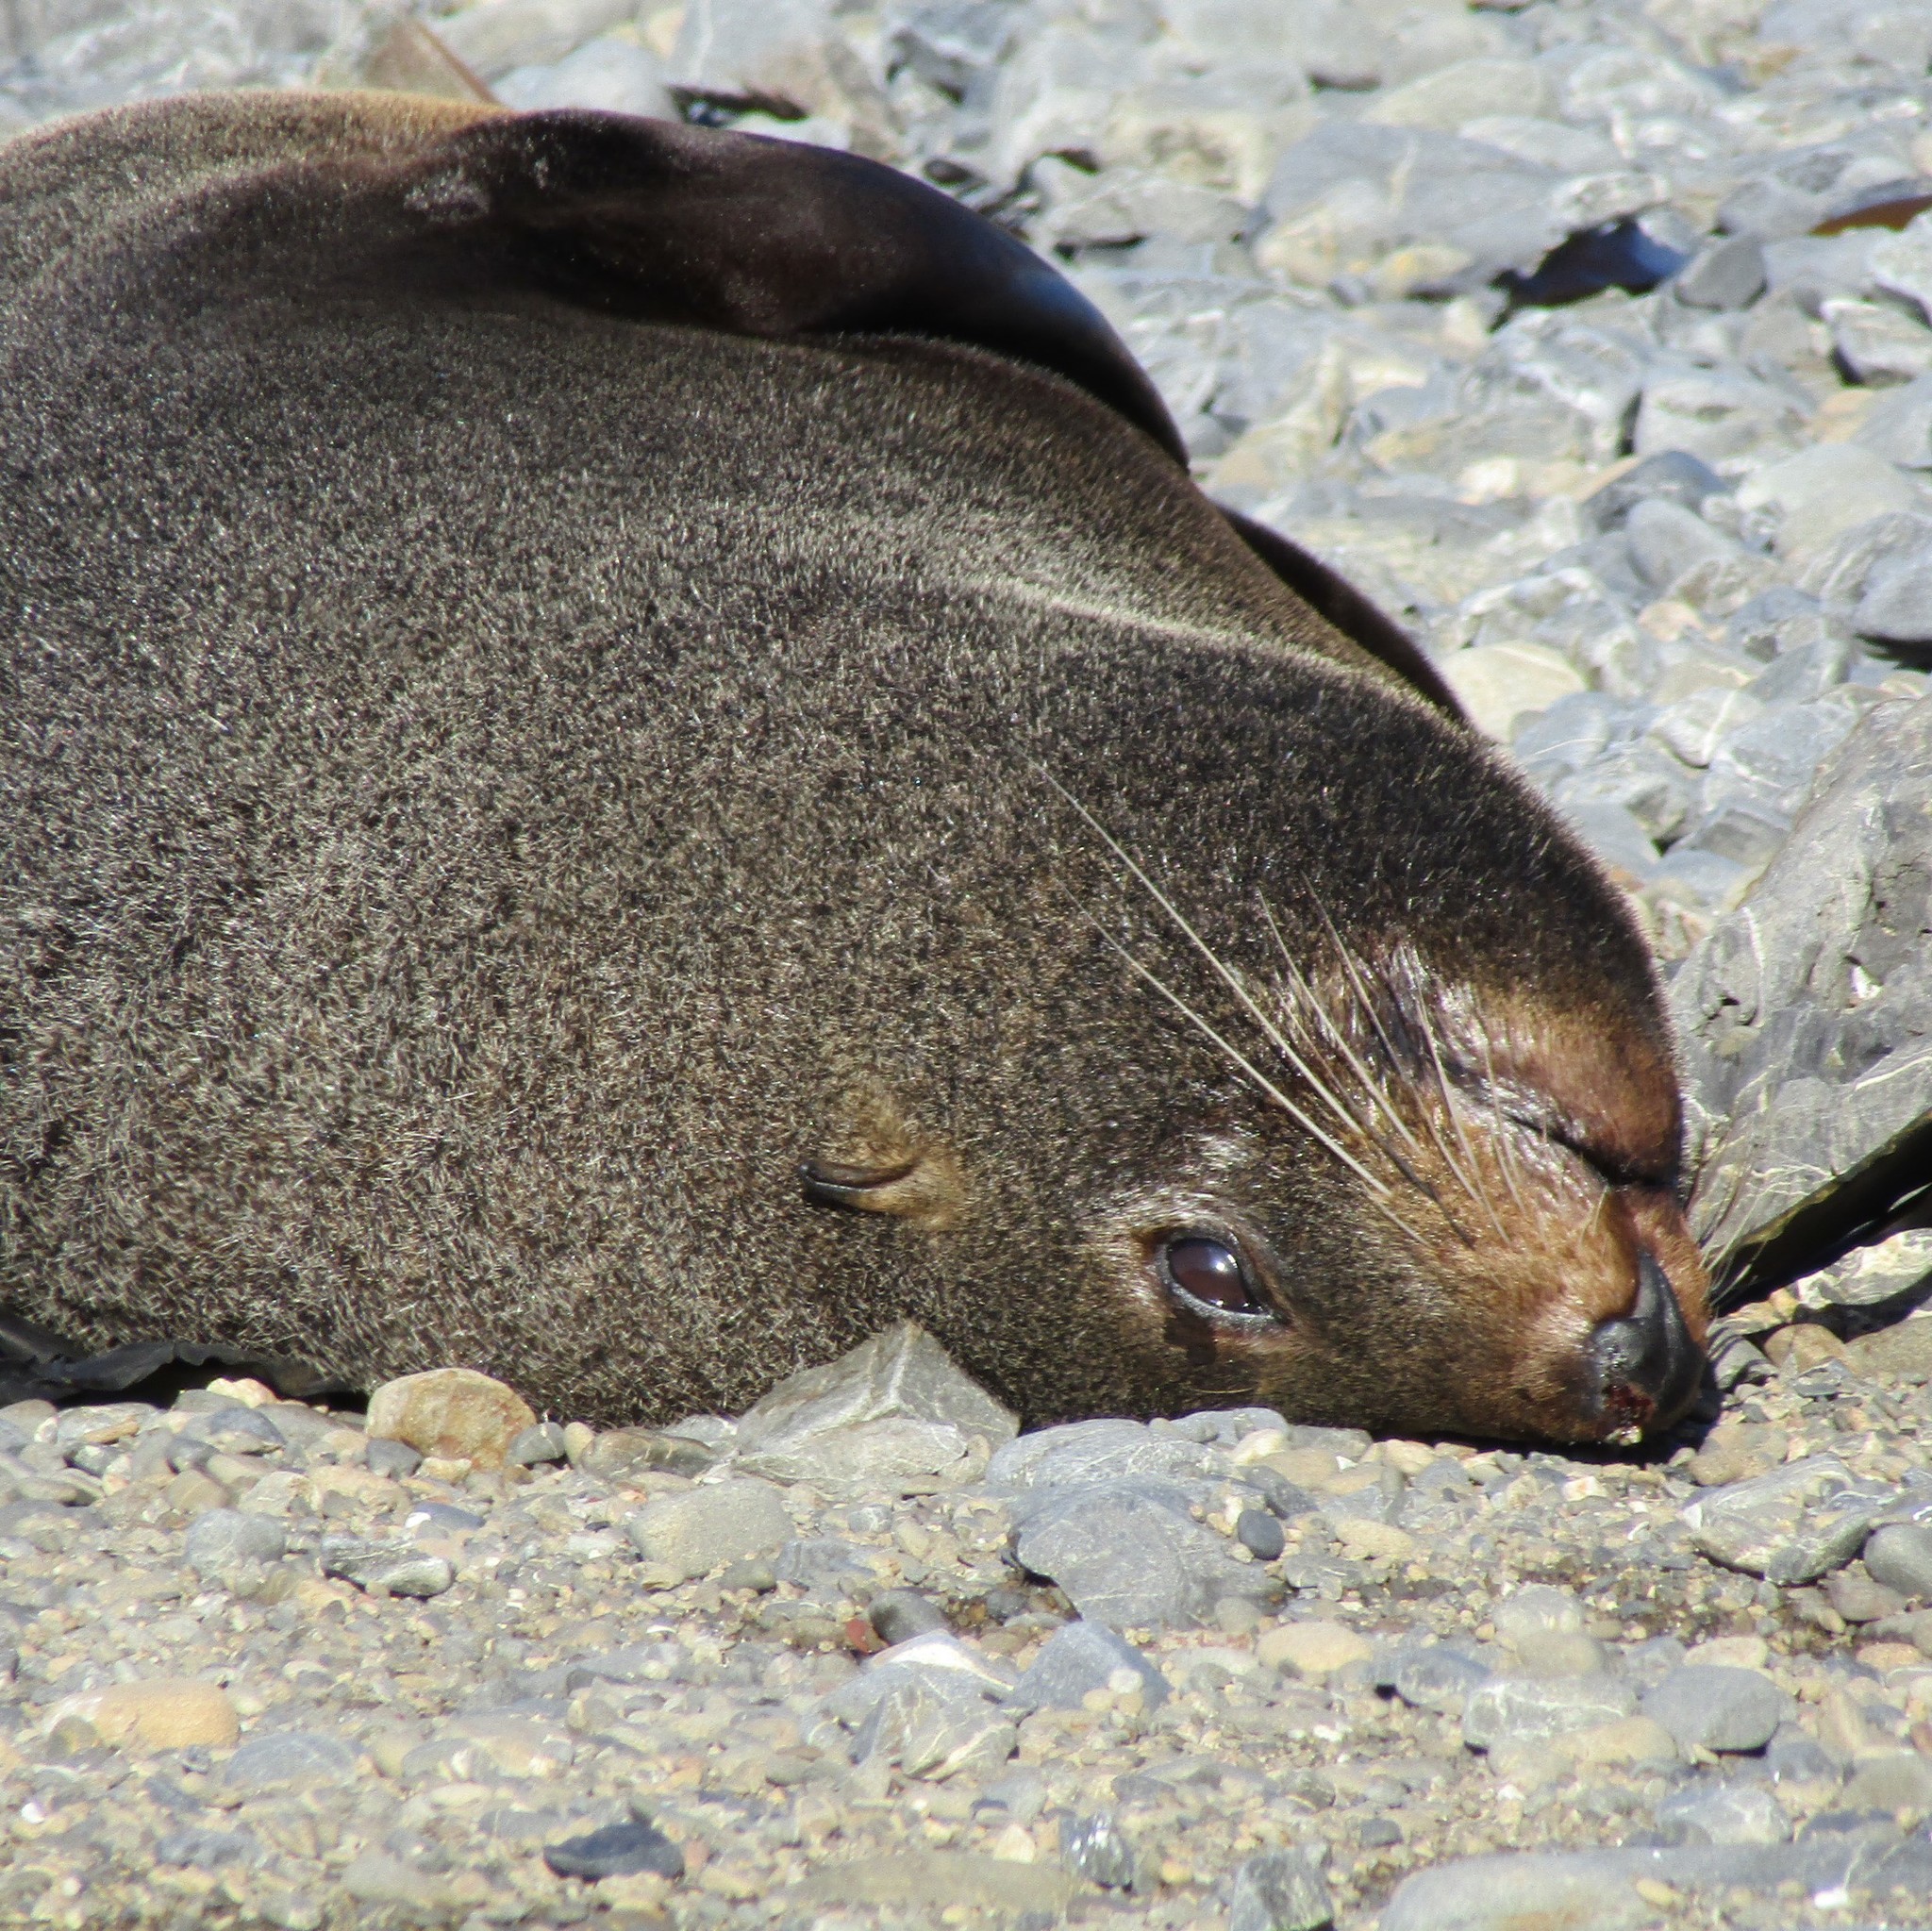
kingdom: Animalia
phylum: Chordata
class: Mammalia
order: Carnivora
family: Otariidae
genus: Arctocephalus
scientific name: Arctocephalus forsteri
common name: New zealand fur seal
